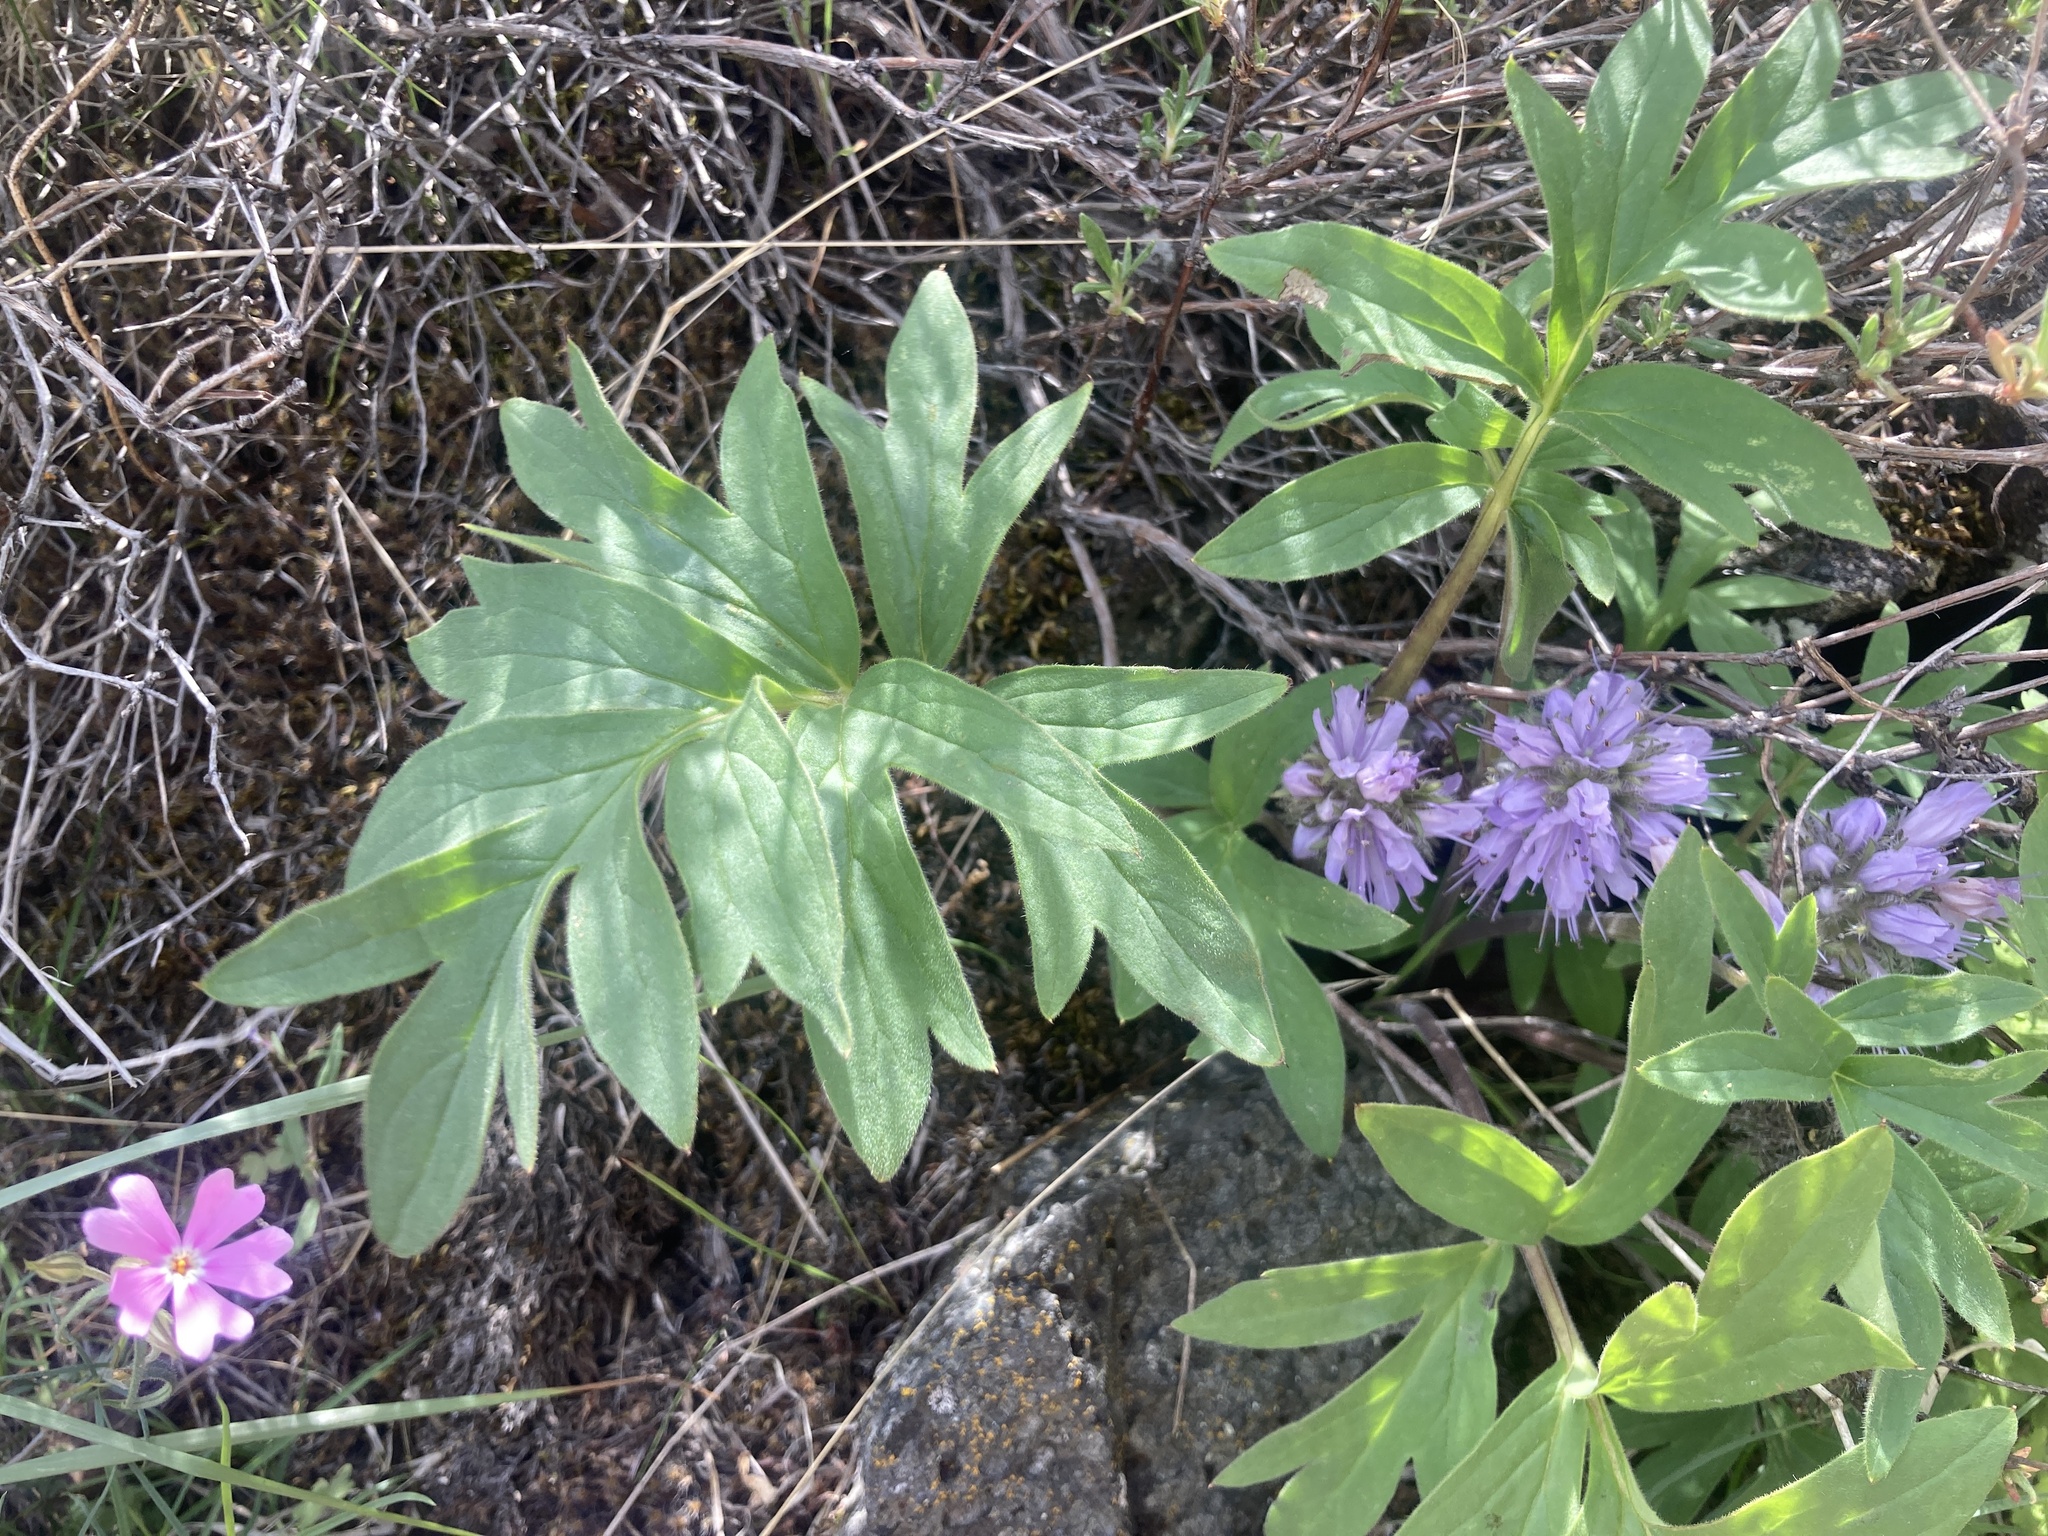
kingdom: Plantae
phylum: Tracheophyta
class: Magnoliopsida
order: Boraginales
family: Hydrophyllaceae
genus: Hydrophyllum
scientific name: Hydrophyllum capitatum
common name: Woollen-breeches
